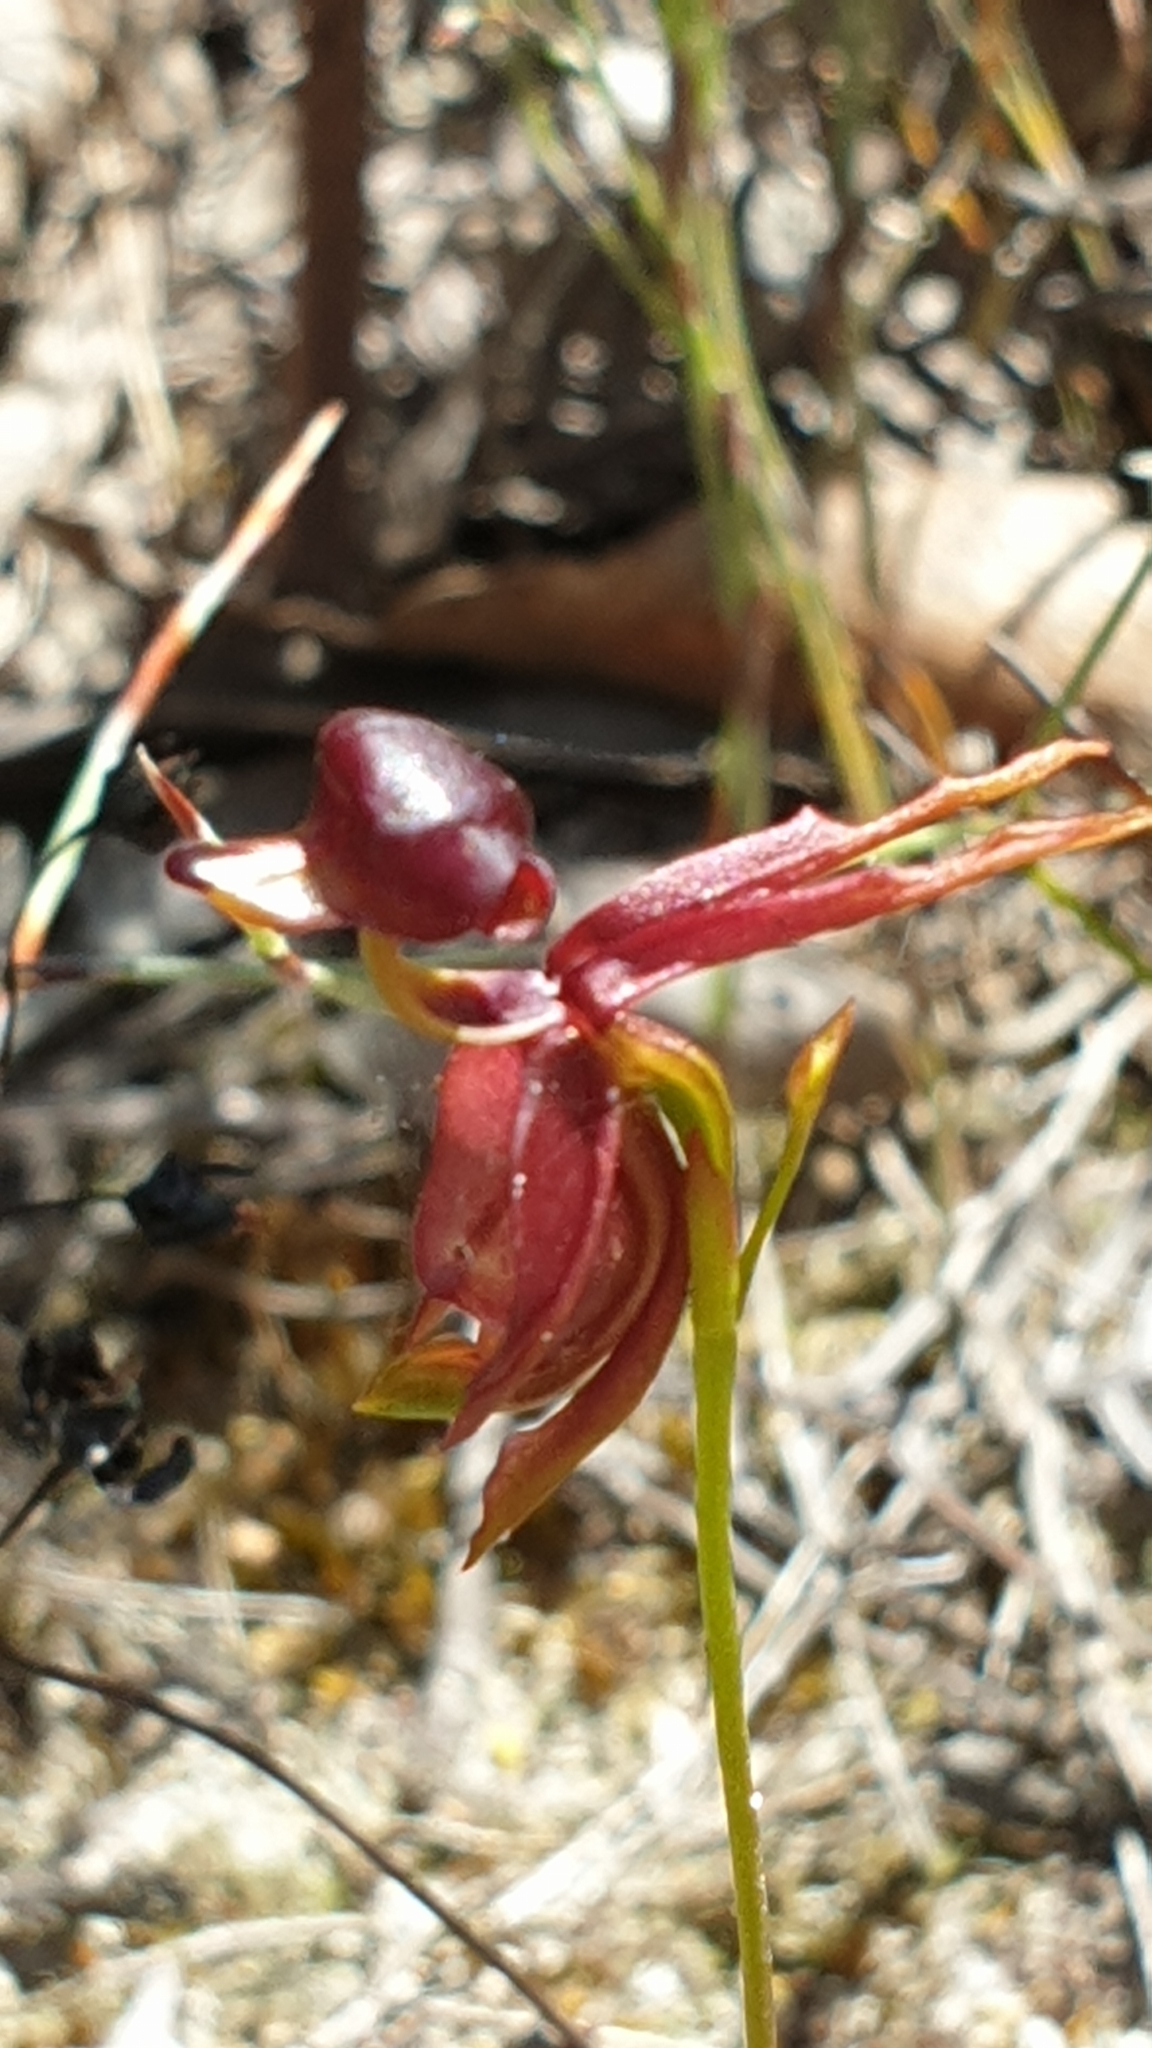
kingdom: Plantae
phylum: Tracheophyta
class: Liliopsida
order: Asparagales
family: Orchidaceae
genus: Caleana
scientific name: Caleana major
